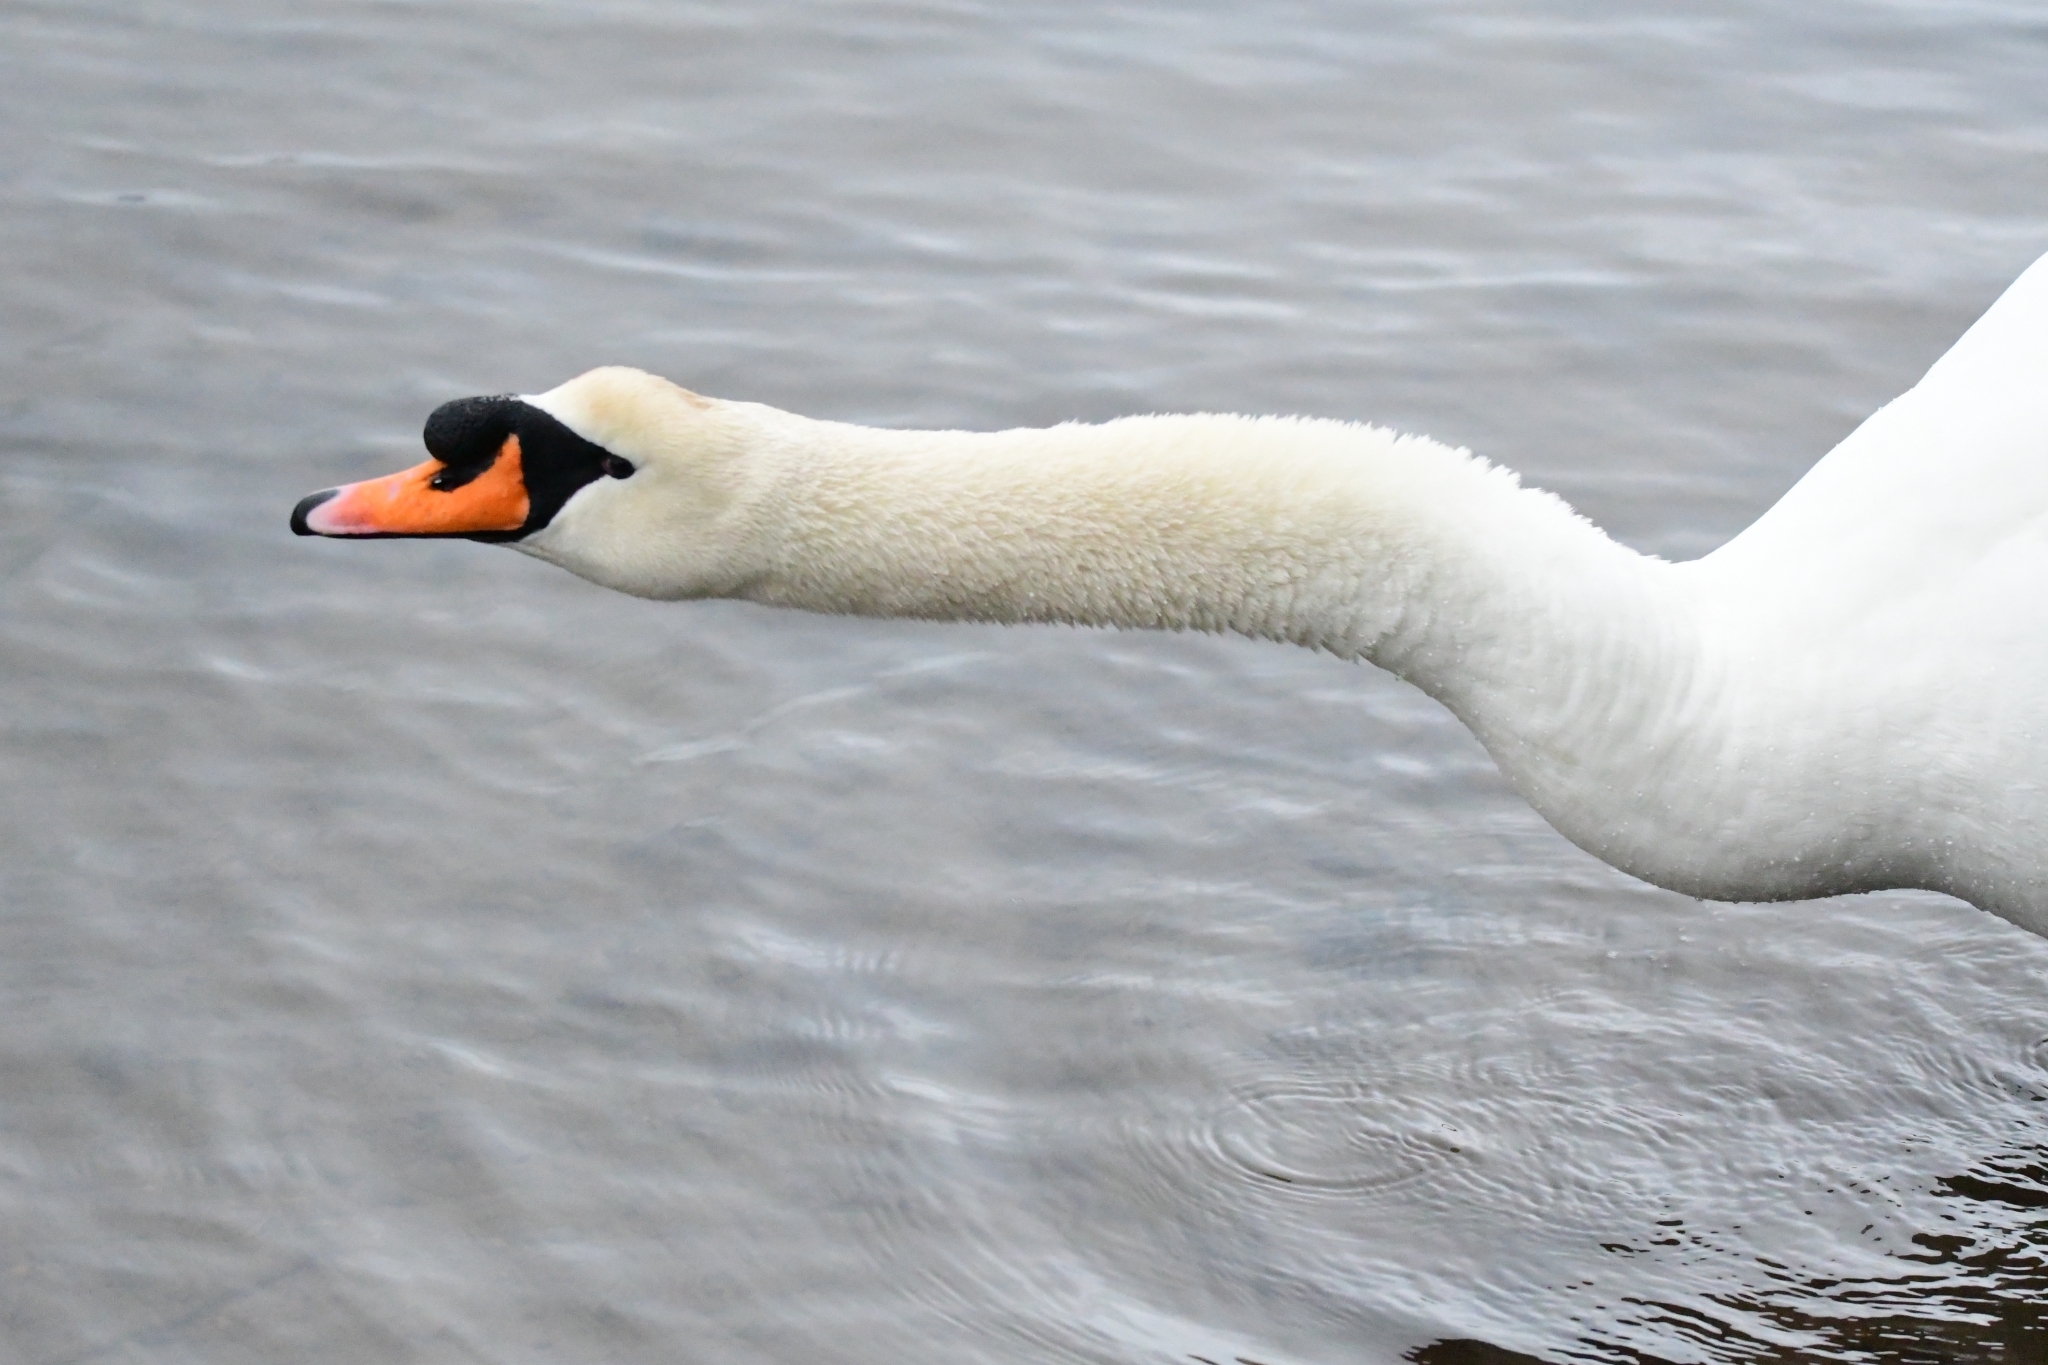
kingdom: Animalia
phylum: Chordata
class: Aves
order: Anseriformes
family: Anatidae
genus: Cygnus
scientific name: Cygnus olor
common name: Mute swan
